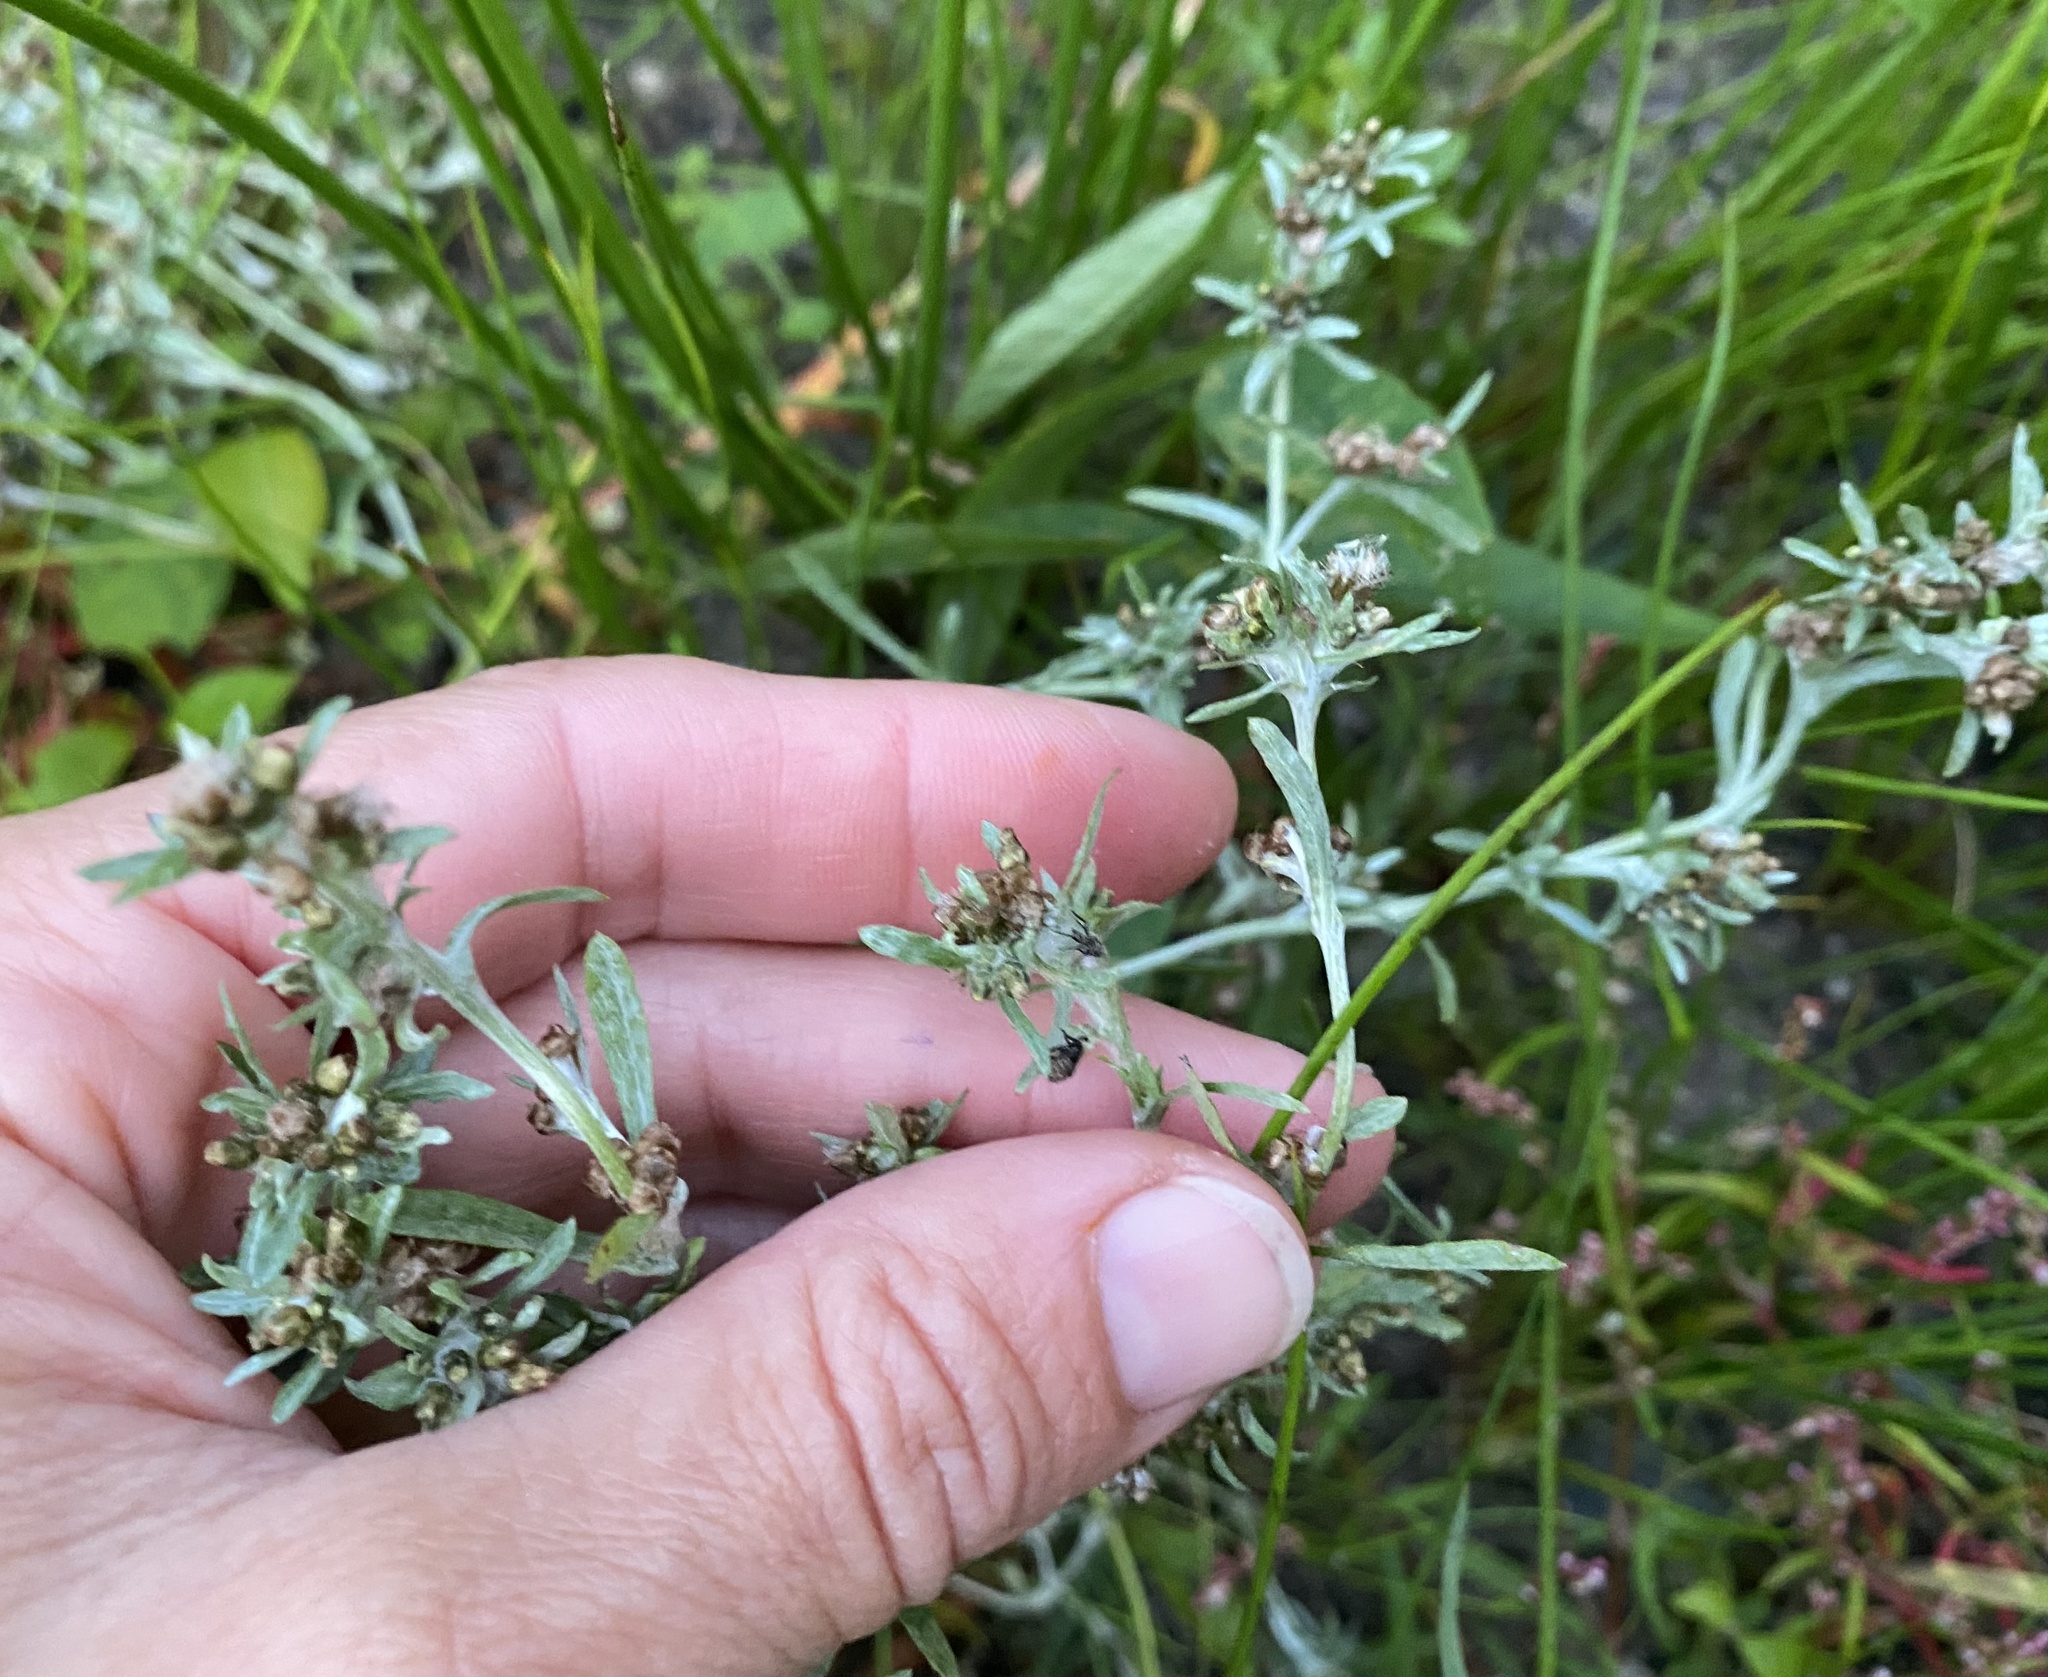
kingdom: Plantae
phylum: Tracheophyta
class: Magnoliopsida
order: Asterales
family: Asteraceae
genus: Gnaphalium
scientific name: Gnaphalium uliginosum
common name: Marsh cudweed
